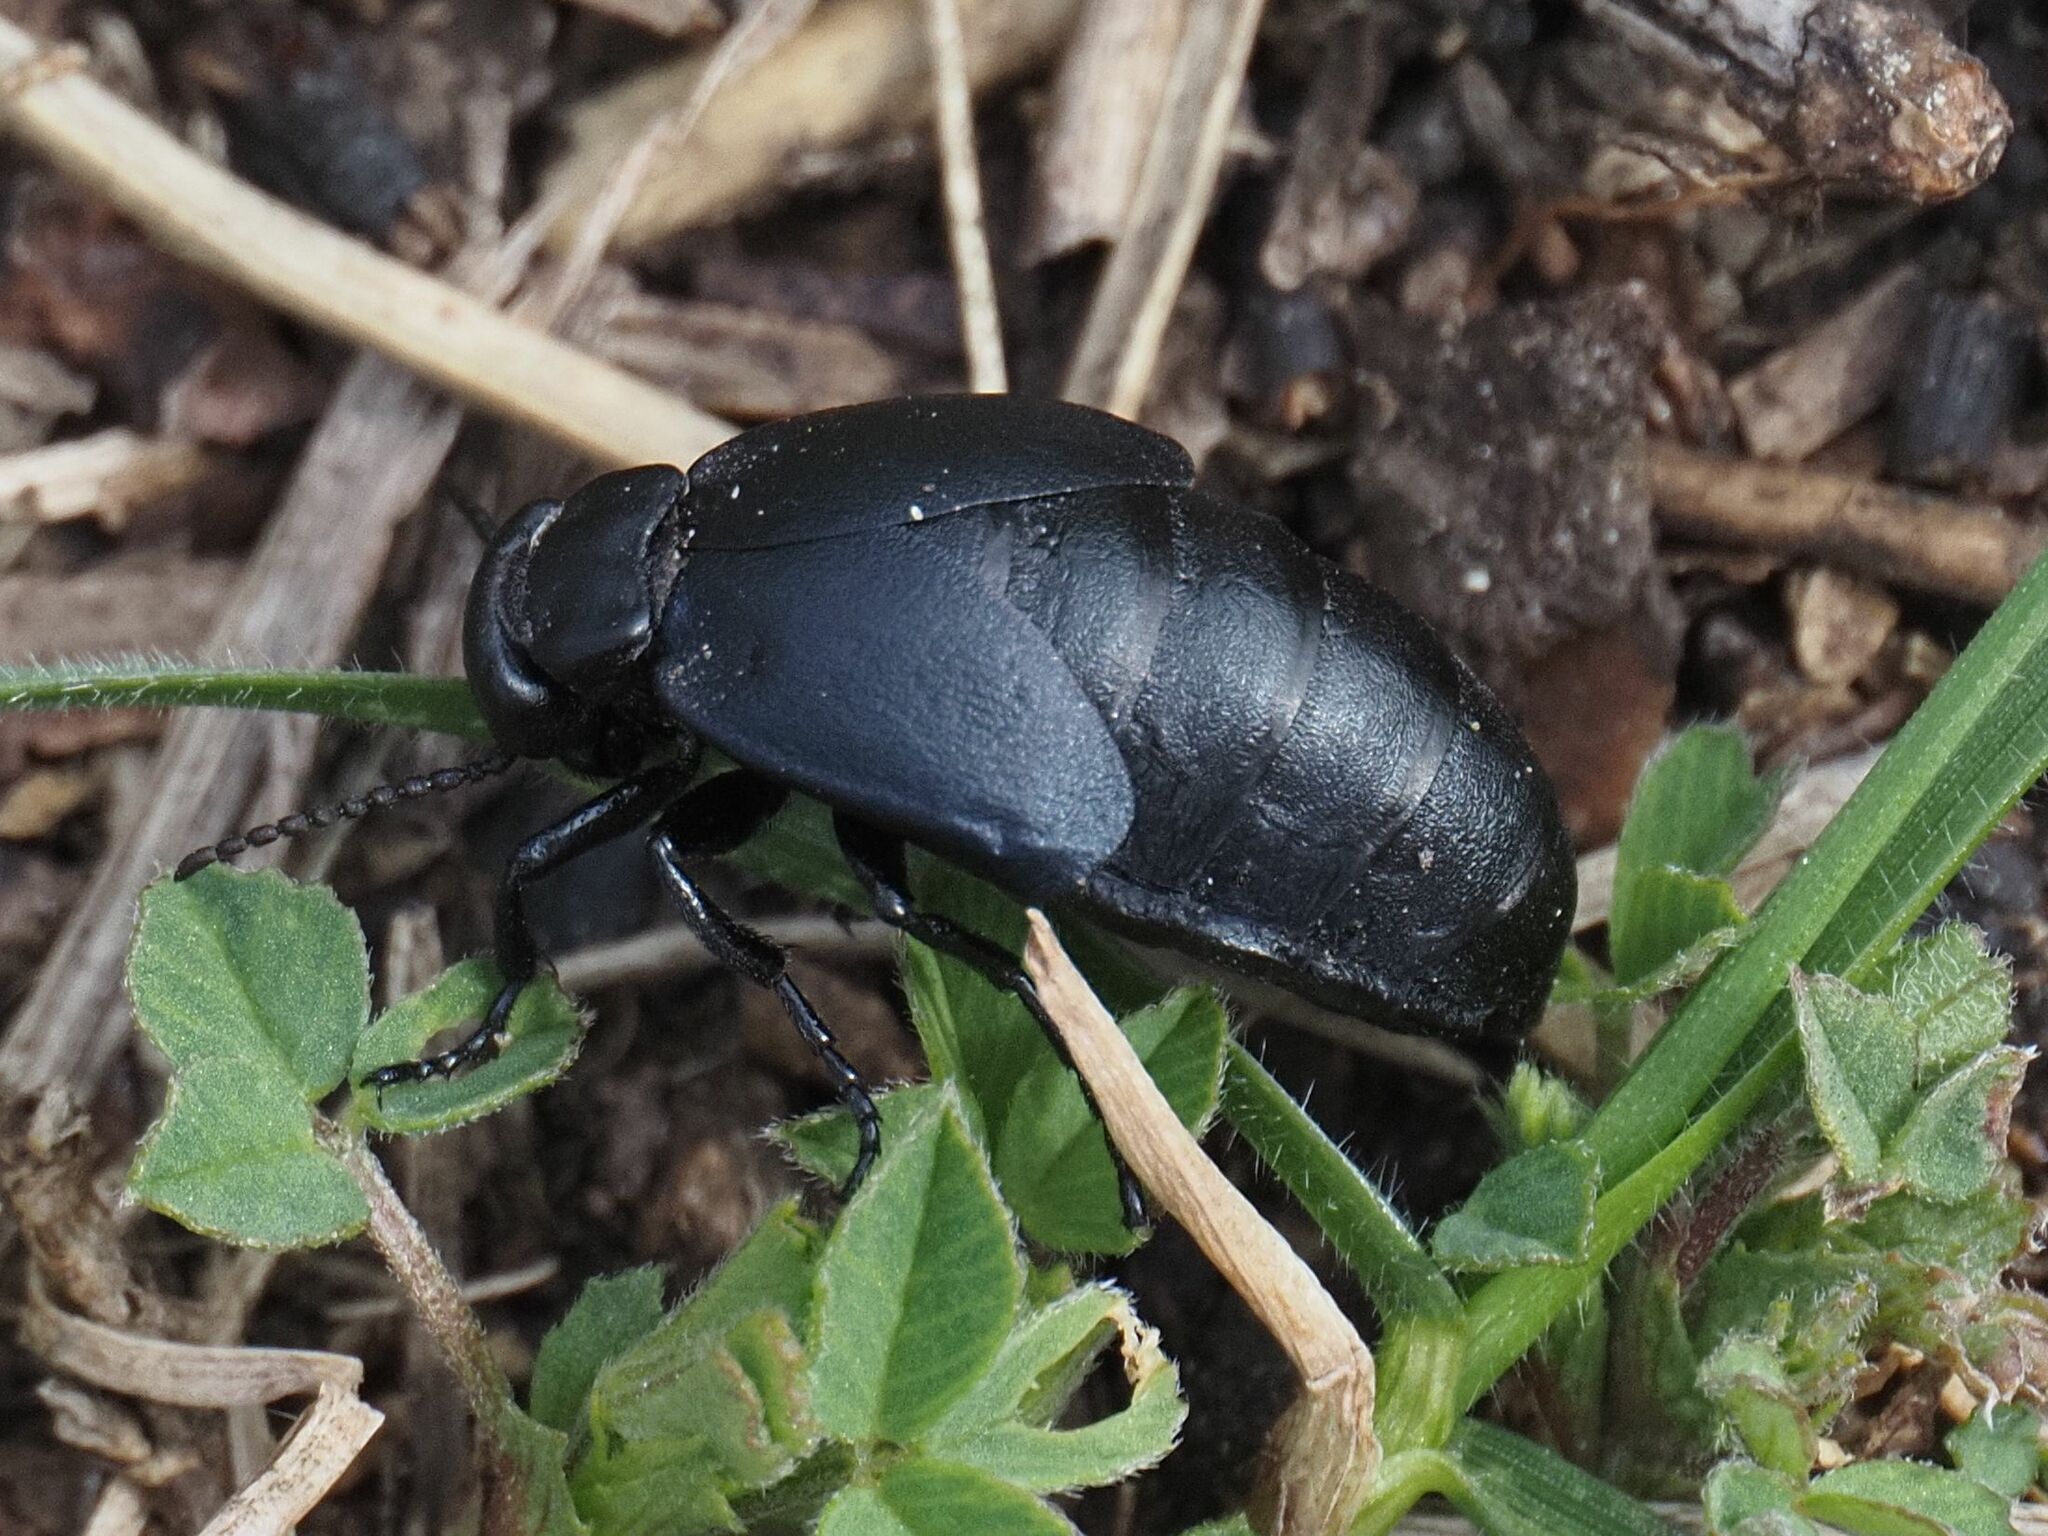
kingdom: Animalia
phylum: Arthropoda
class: Insecta
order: Coleoptera
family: Meloidae
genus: Meloe
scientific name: Meloe uralensis
